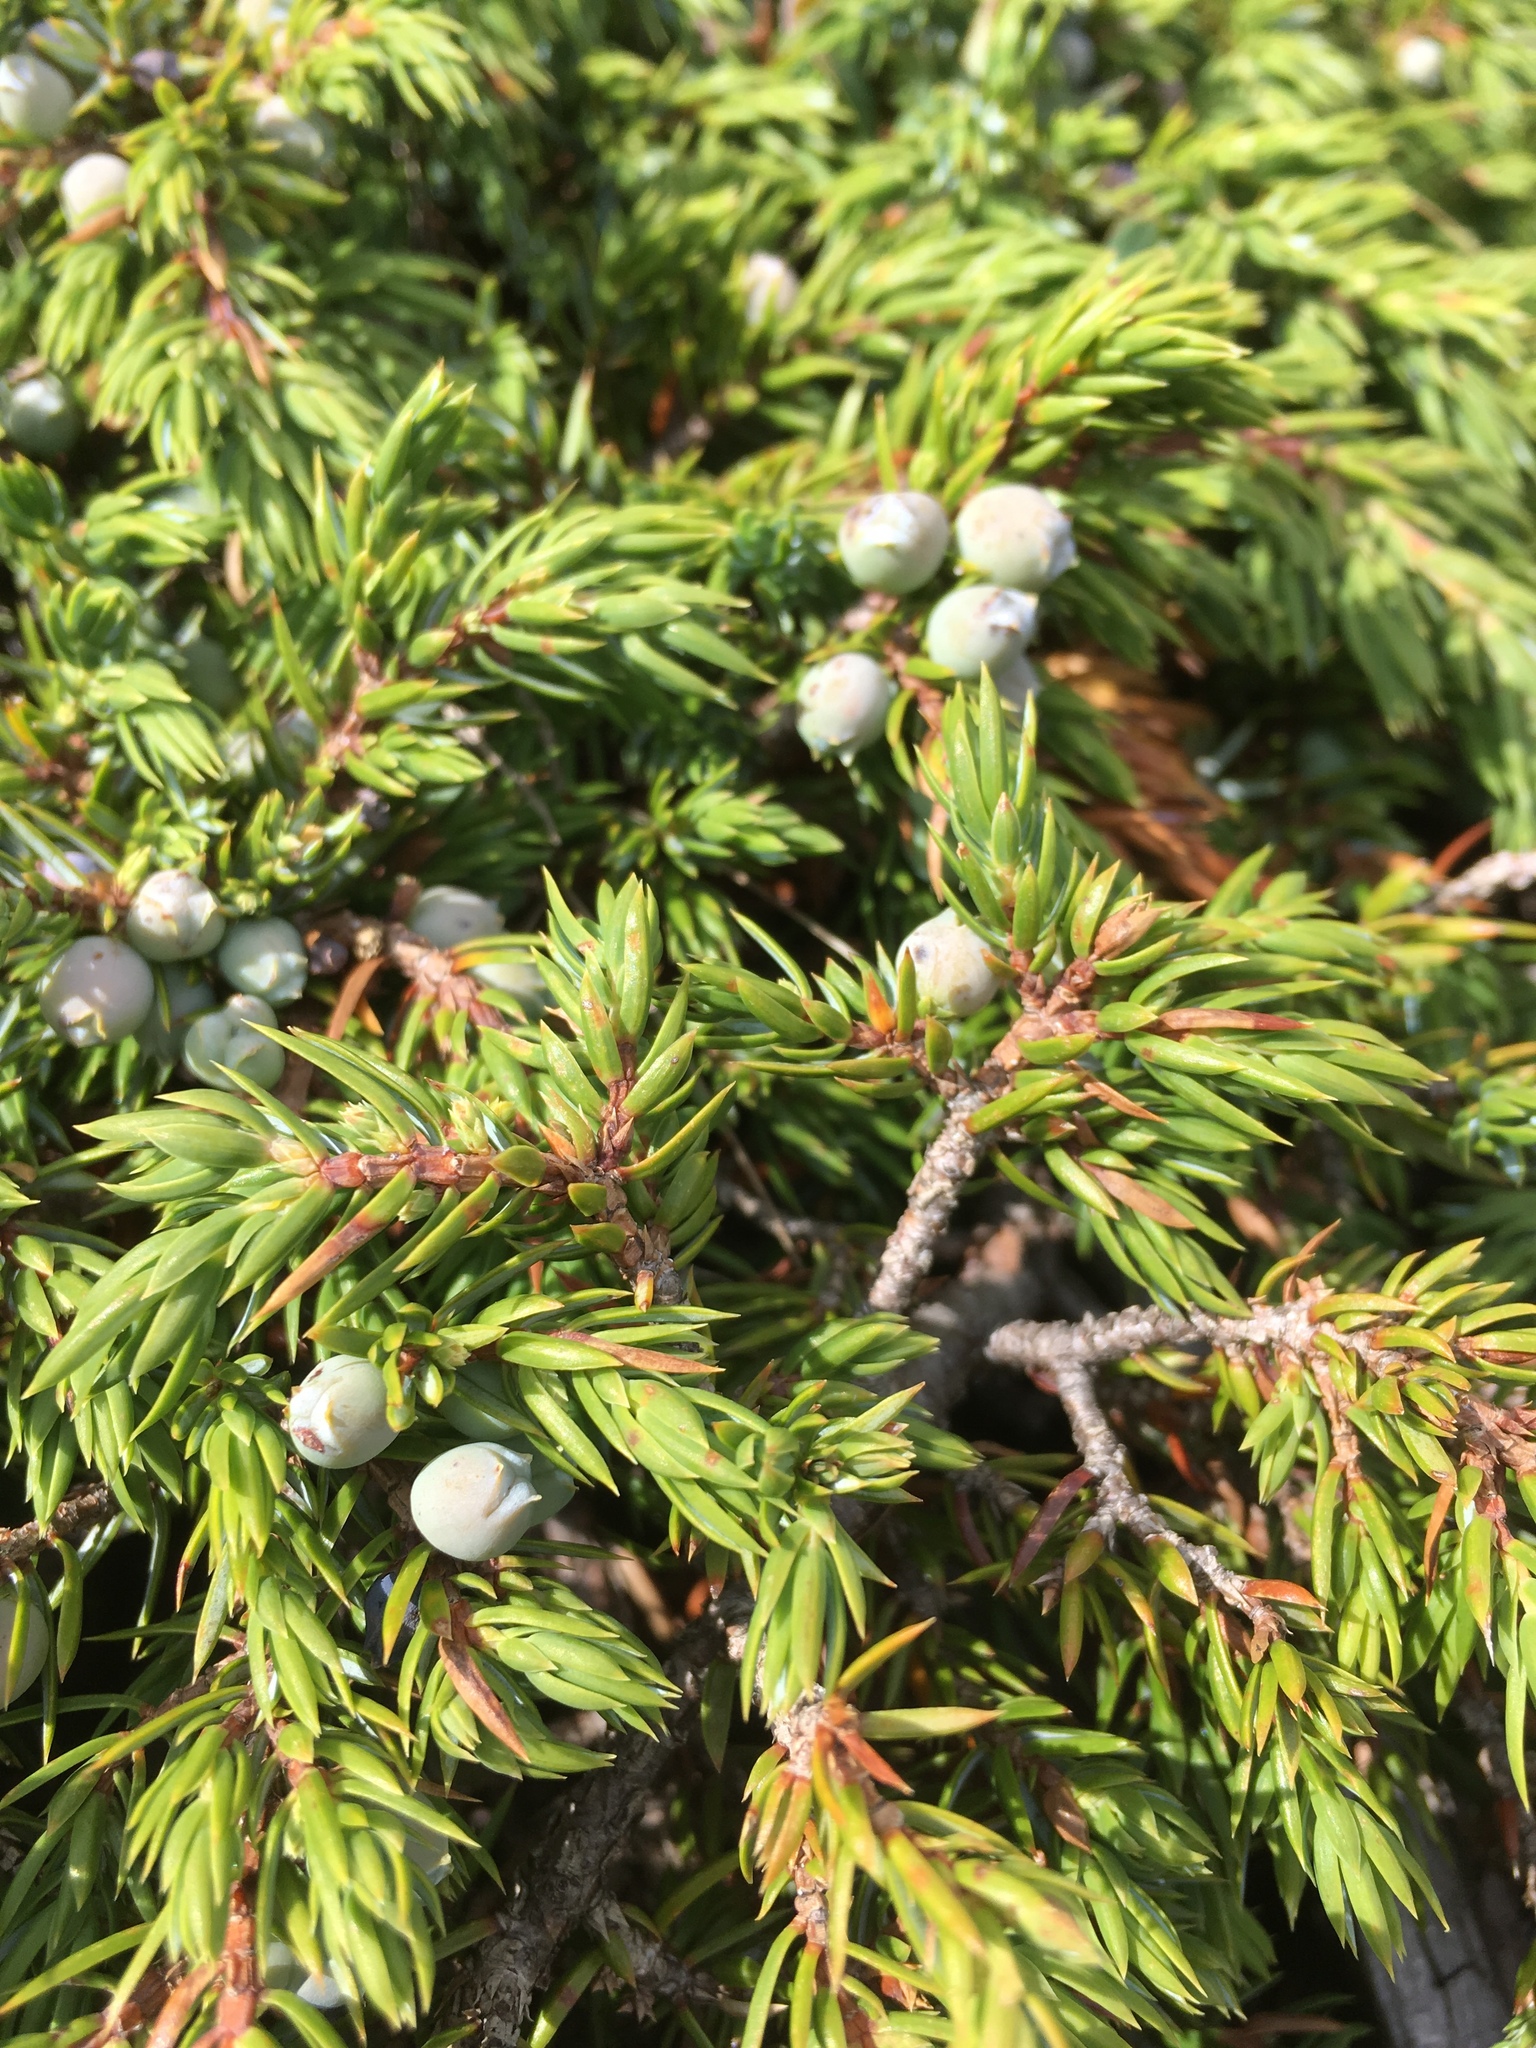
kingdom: Plantae
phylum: Tracheophyta
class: Pinopsida
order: Pinales
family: Cupressaceae
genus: Juniperus
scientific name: Juniperus communis
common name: Common juniper
